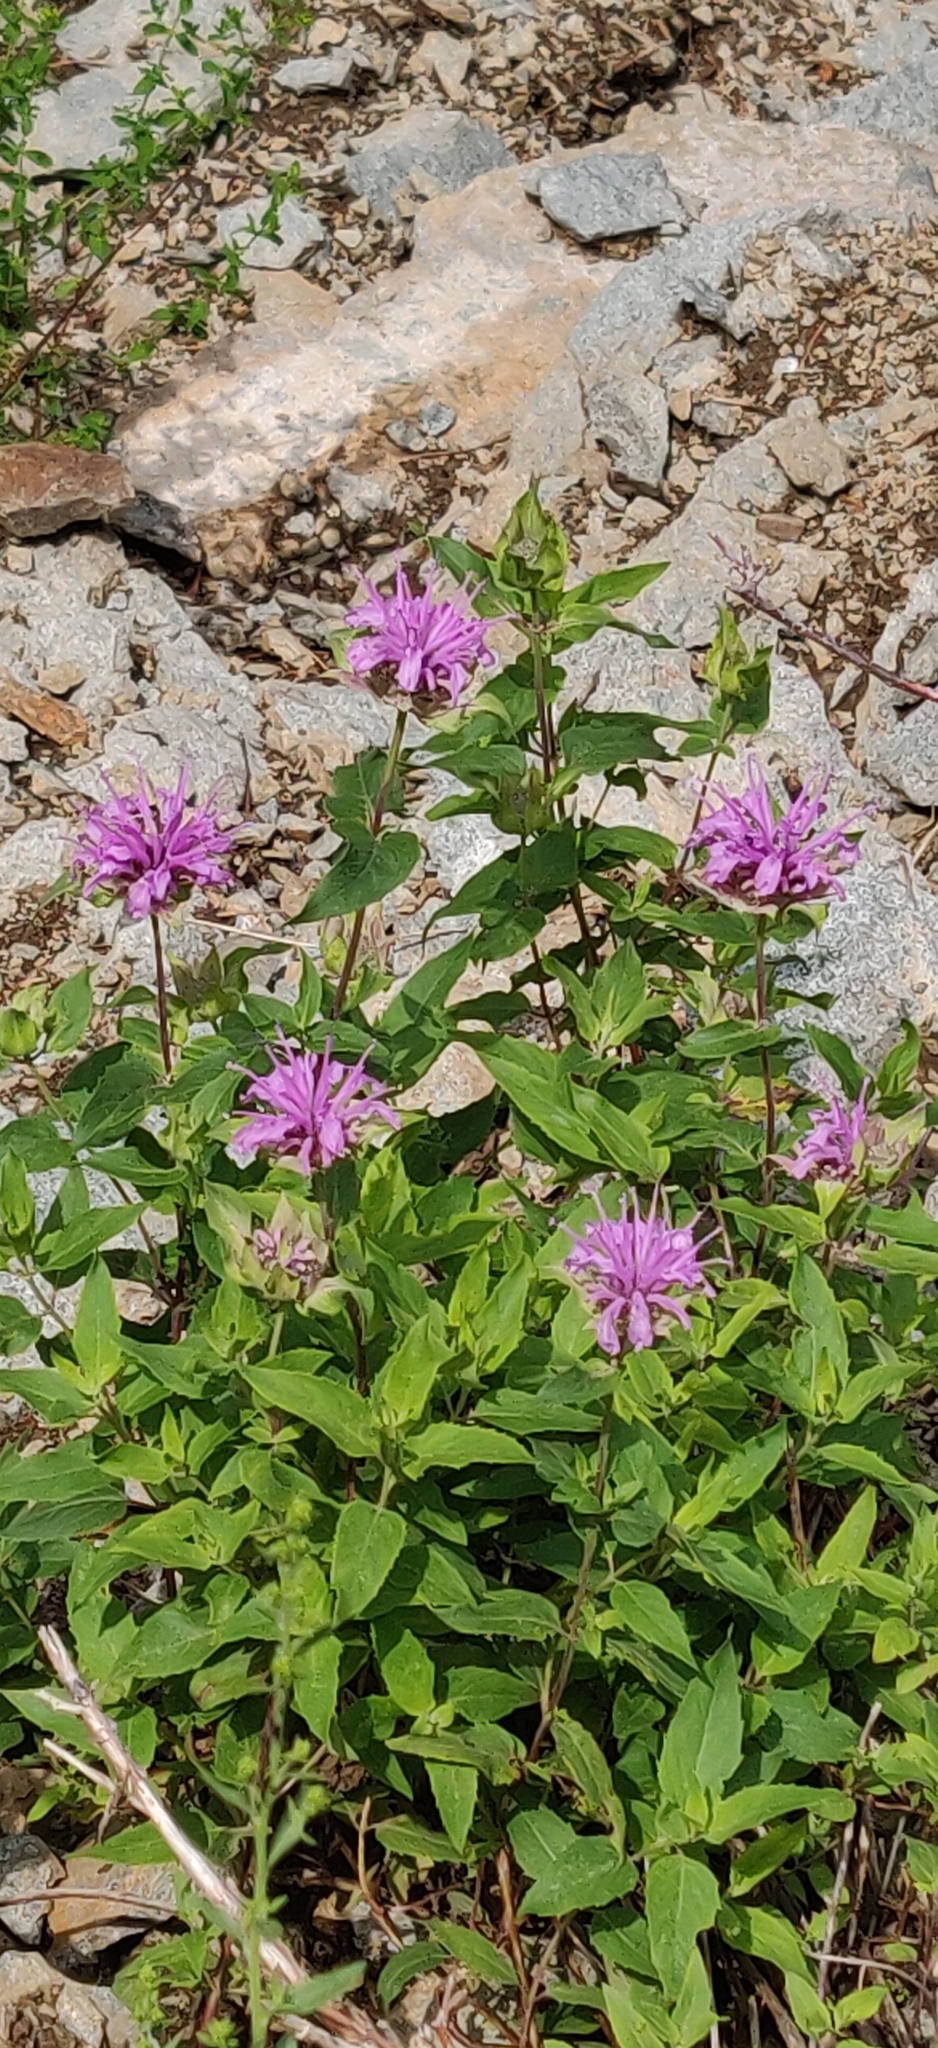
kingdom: Plantae
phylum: Tracheophyta
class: Magnoliopsida
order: Lamiales
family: Lamiaceae
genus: Monarda
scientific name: Monarda fistulosa
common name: Purple beebalm
